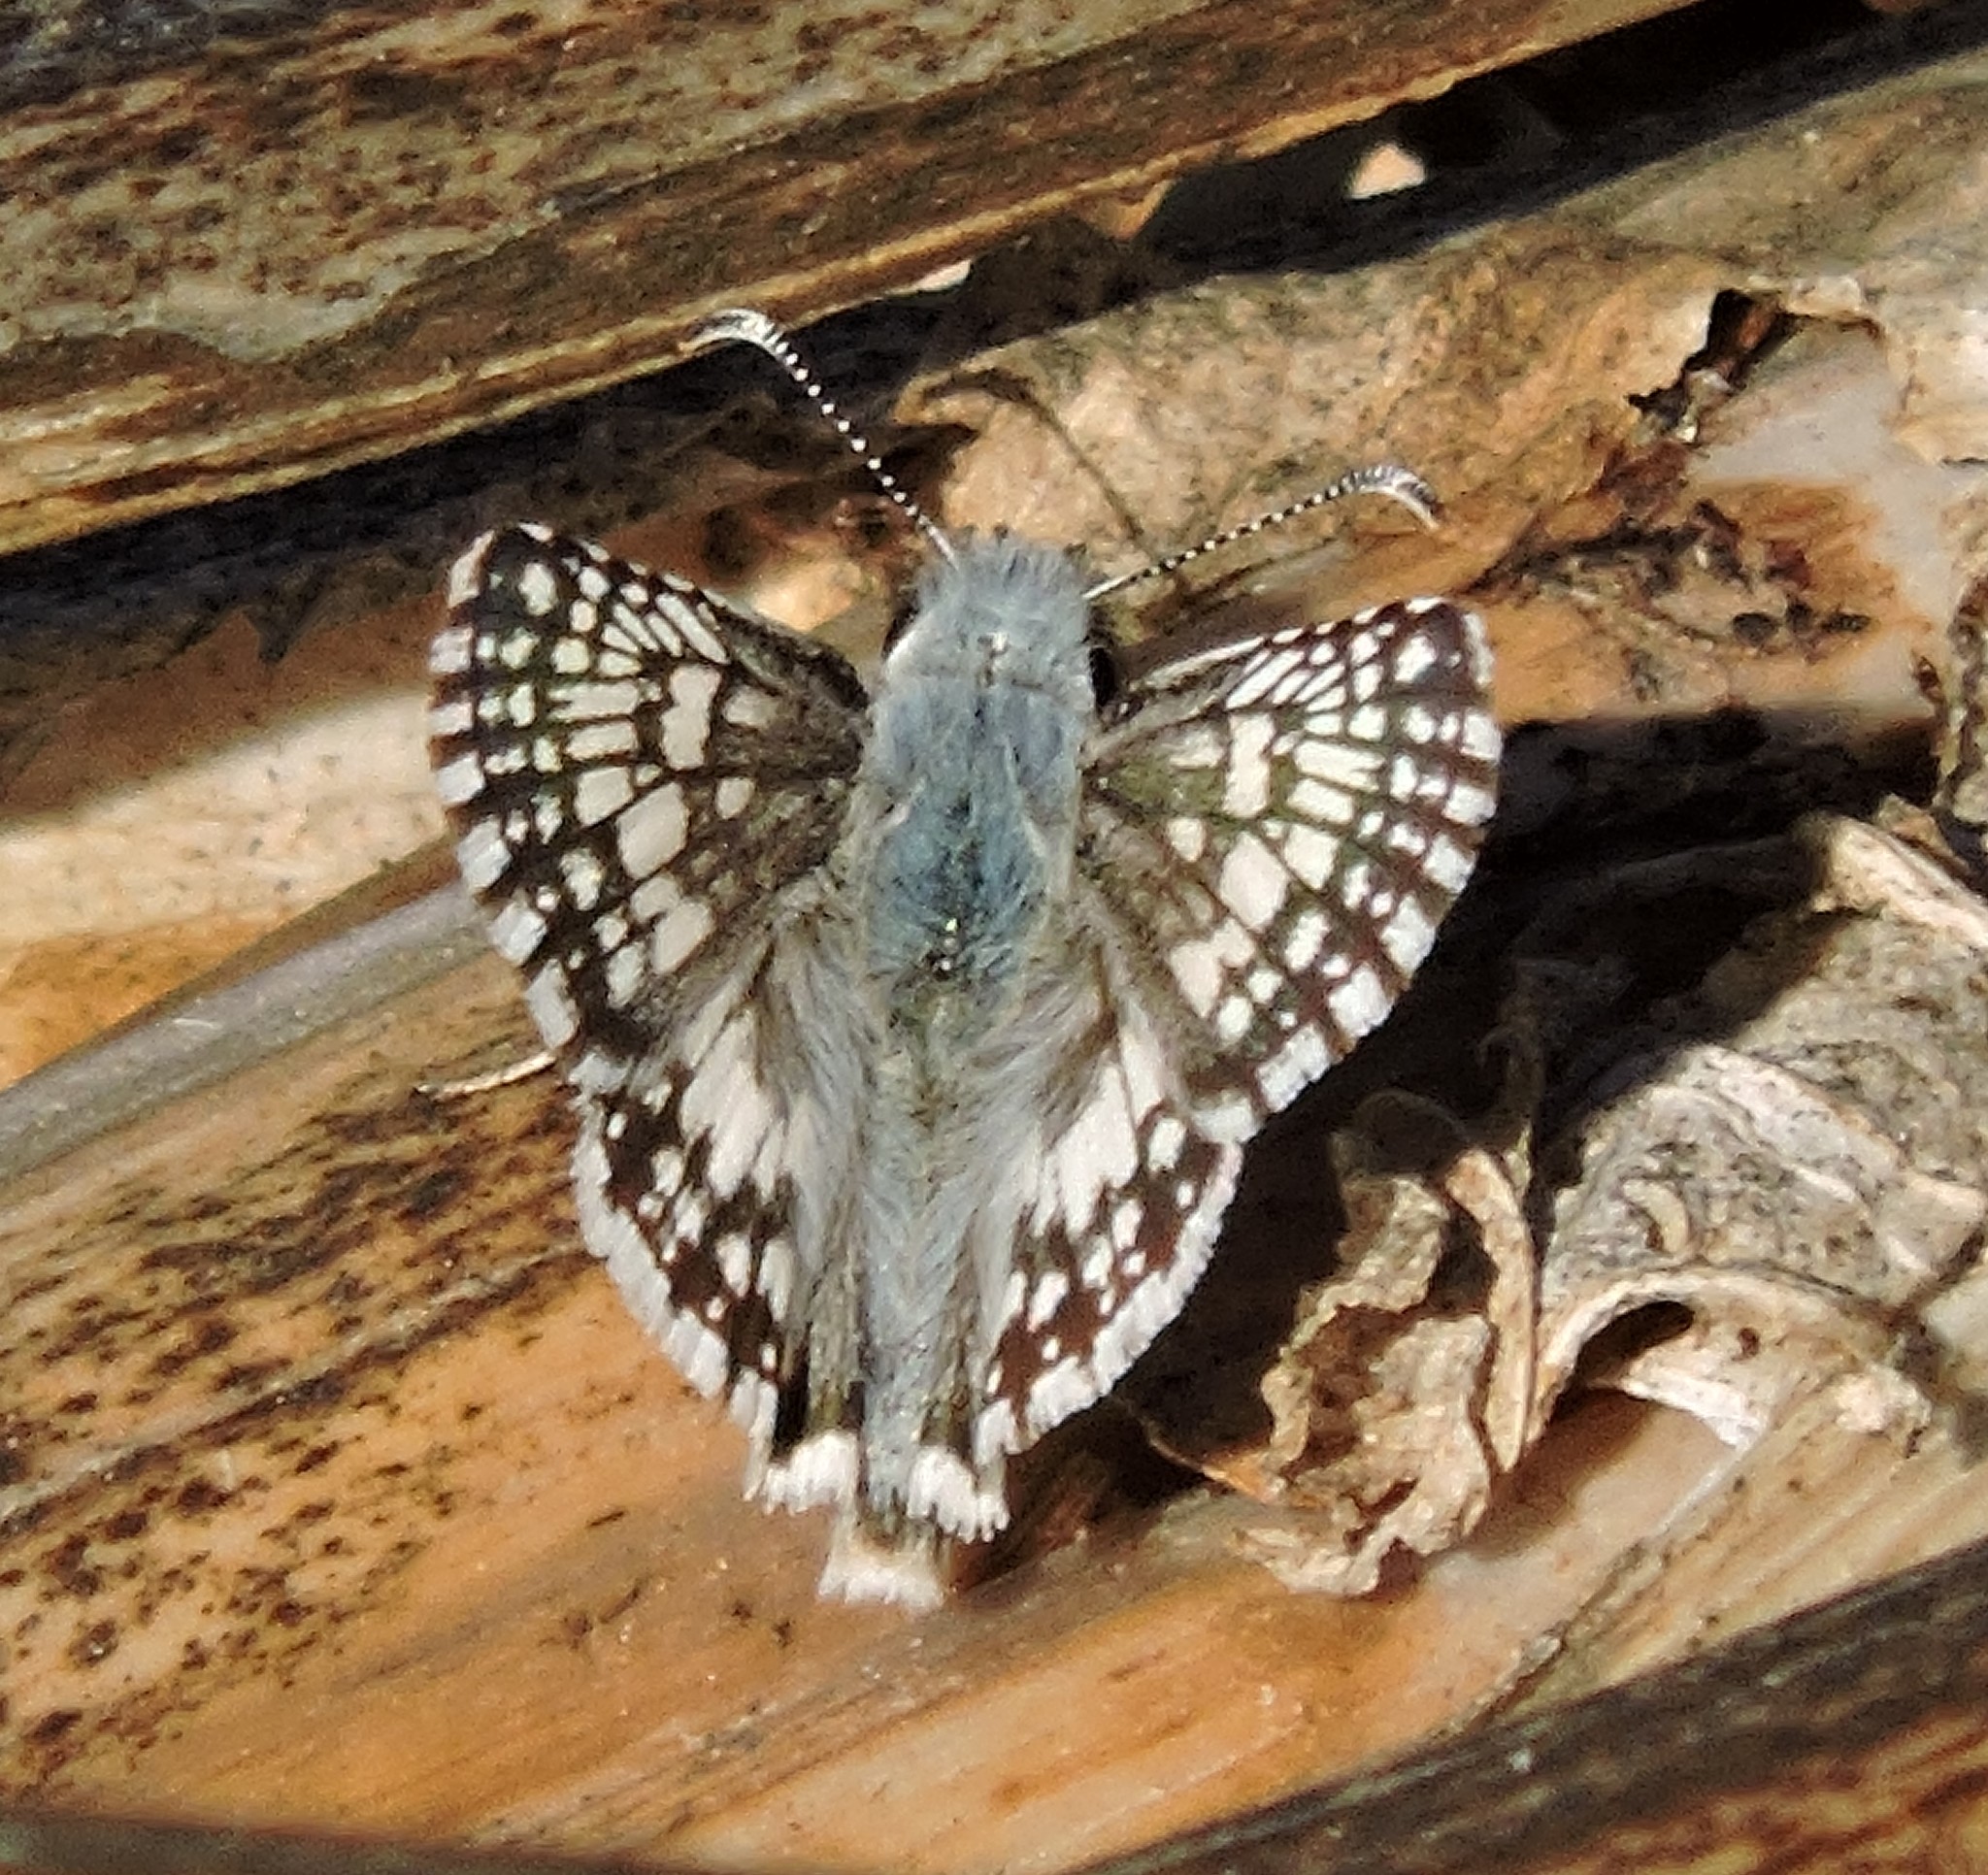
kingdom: Animalia
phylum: Arthropoda
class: Insecta
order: Lepidoptera
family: Hesperiidae
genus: Burnsius
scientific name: Burnsius communis
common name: Common checkered-skipper
